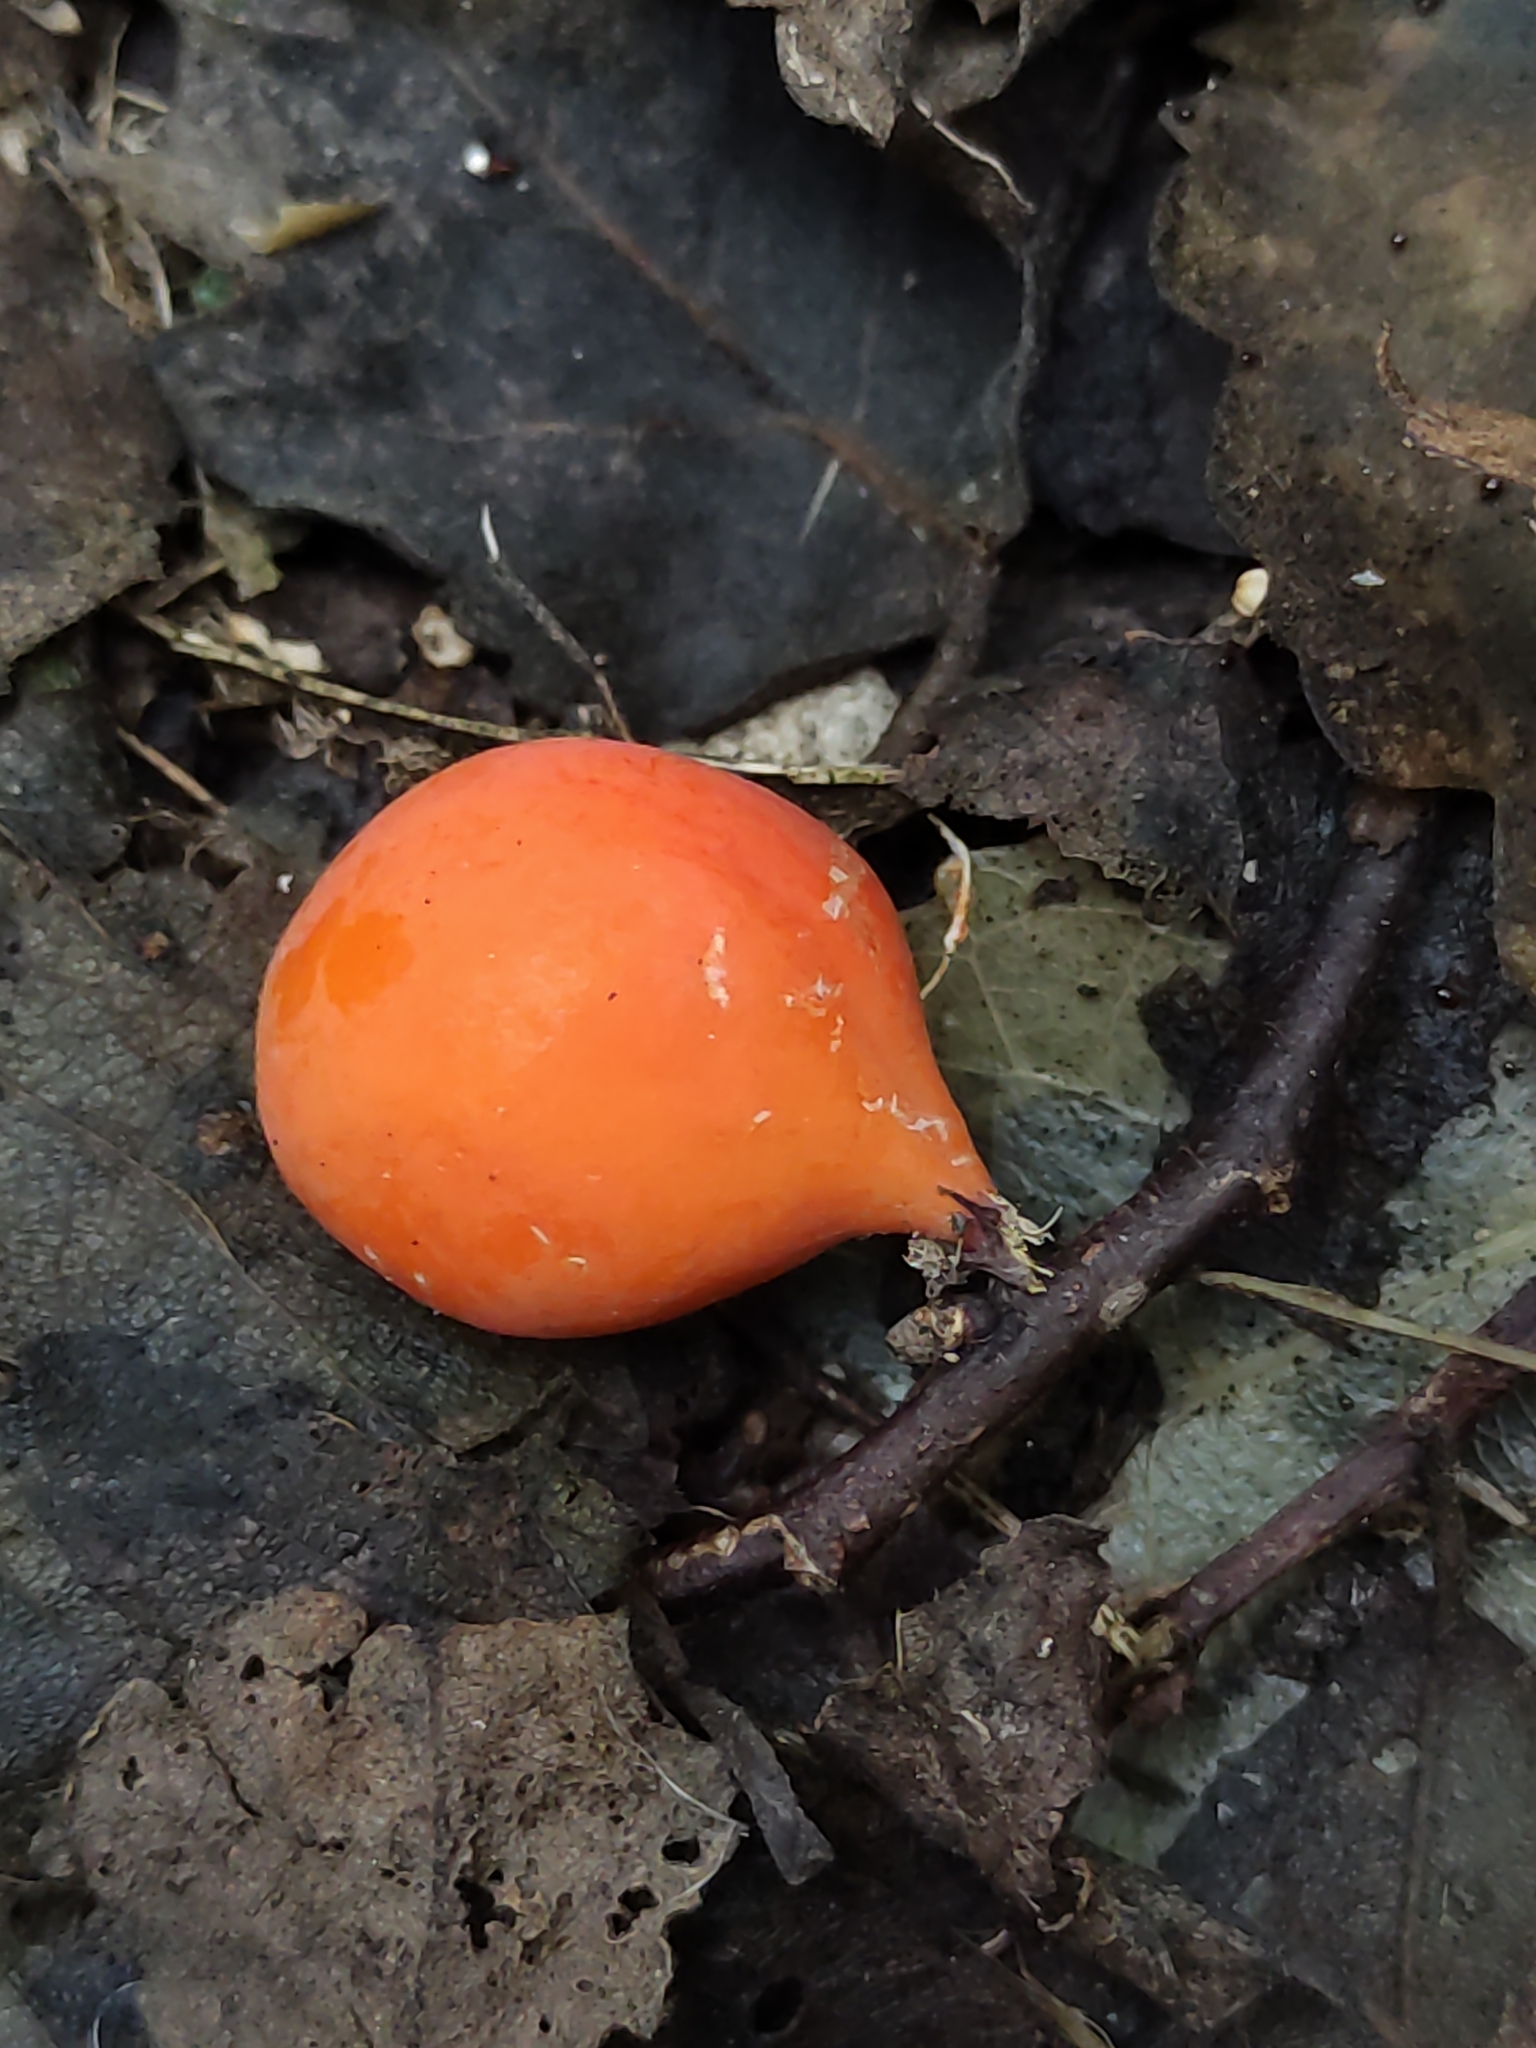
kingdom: Plantae
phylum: Tracheophyta
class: Magnoliopsida
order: Malpighiales
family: Passifloraceae
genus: Passiflora
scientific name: Passiflora tetrandra
